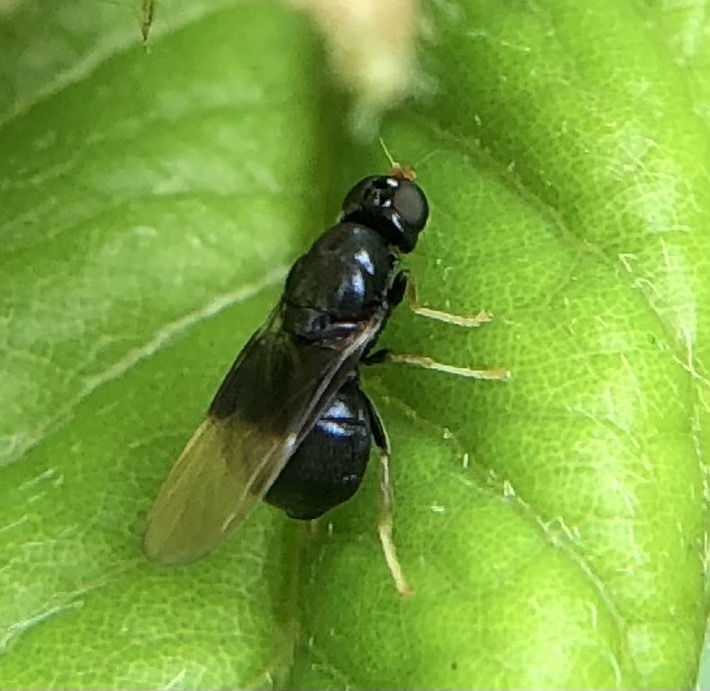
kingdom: Animalia
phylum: Arthropoda
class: Insecta
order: Diptera
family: Stratiomyidae
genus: Pachygaster
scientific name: Pachygaster atra
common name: Dark-winged black
